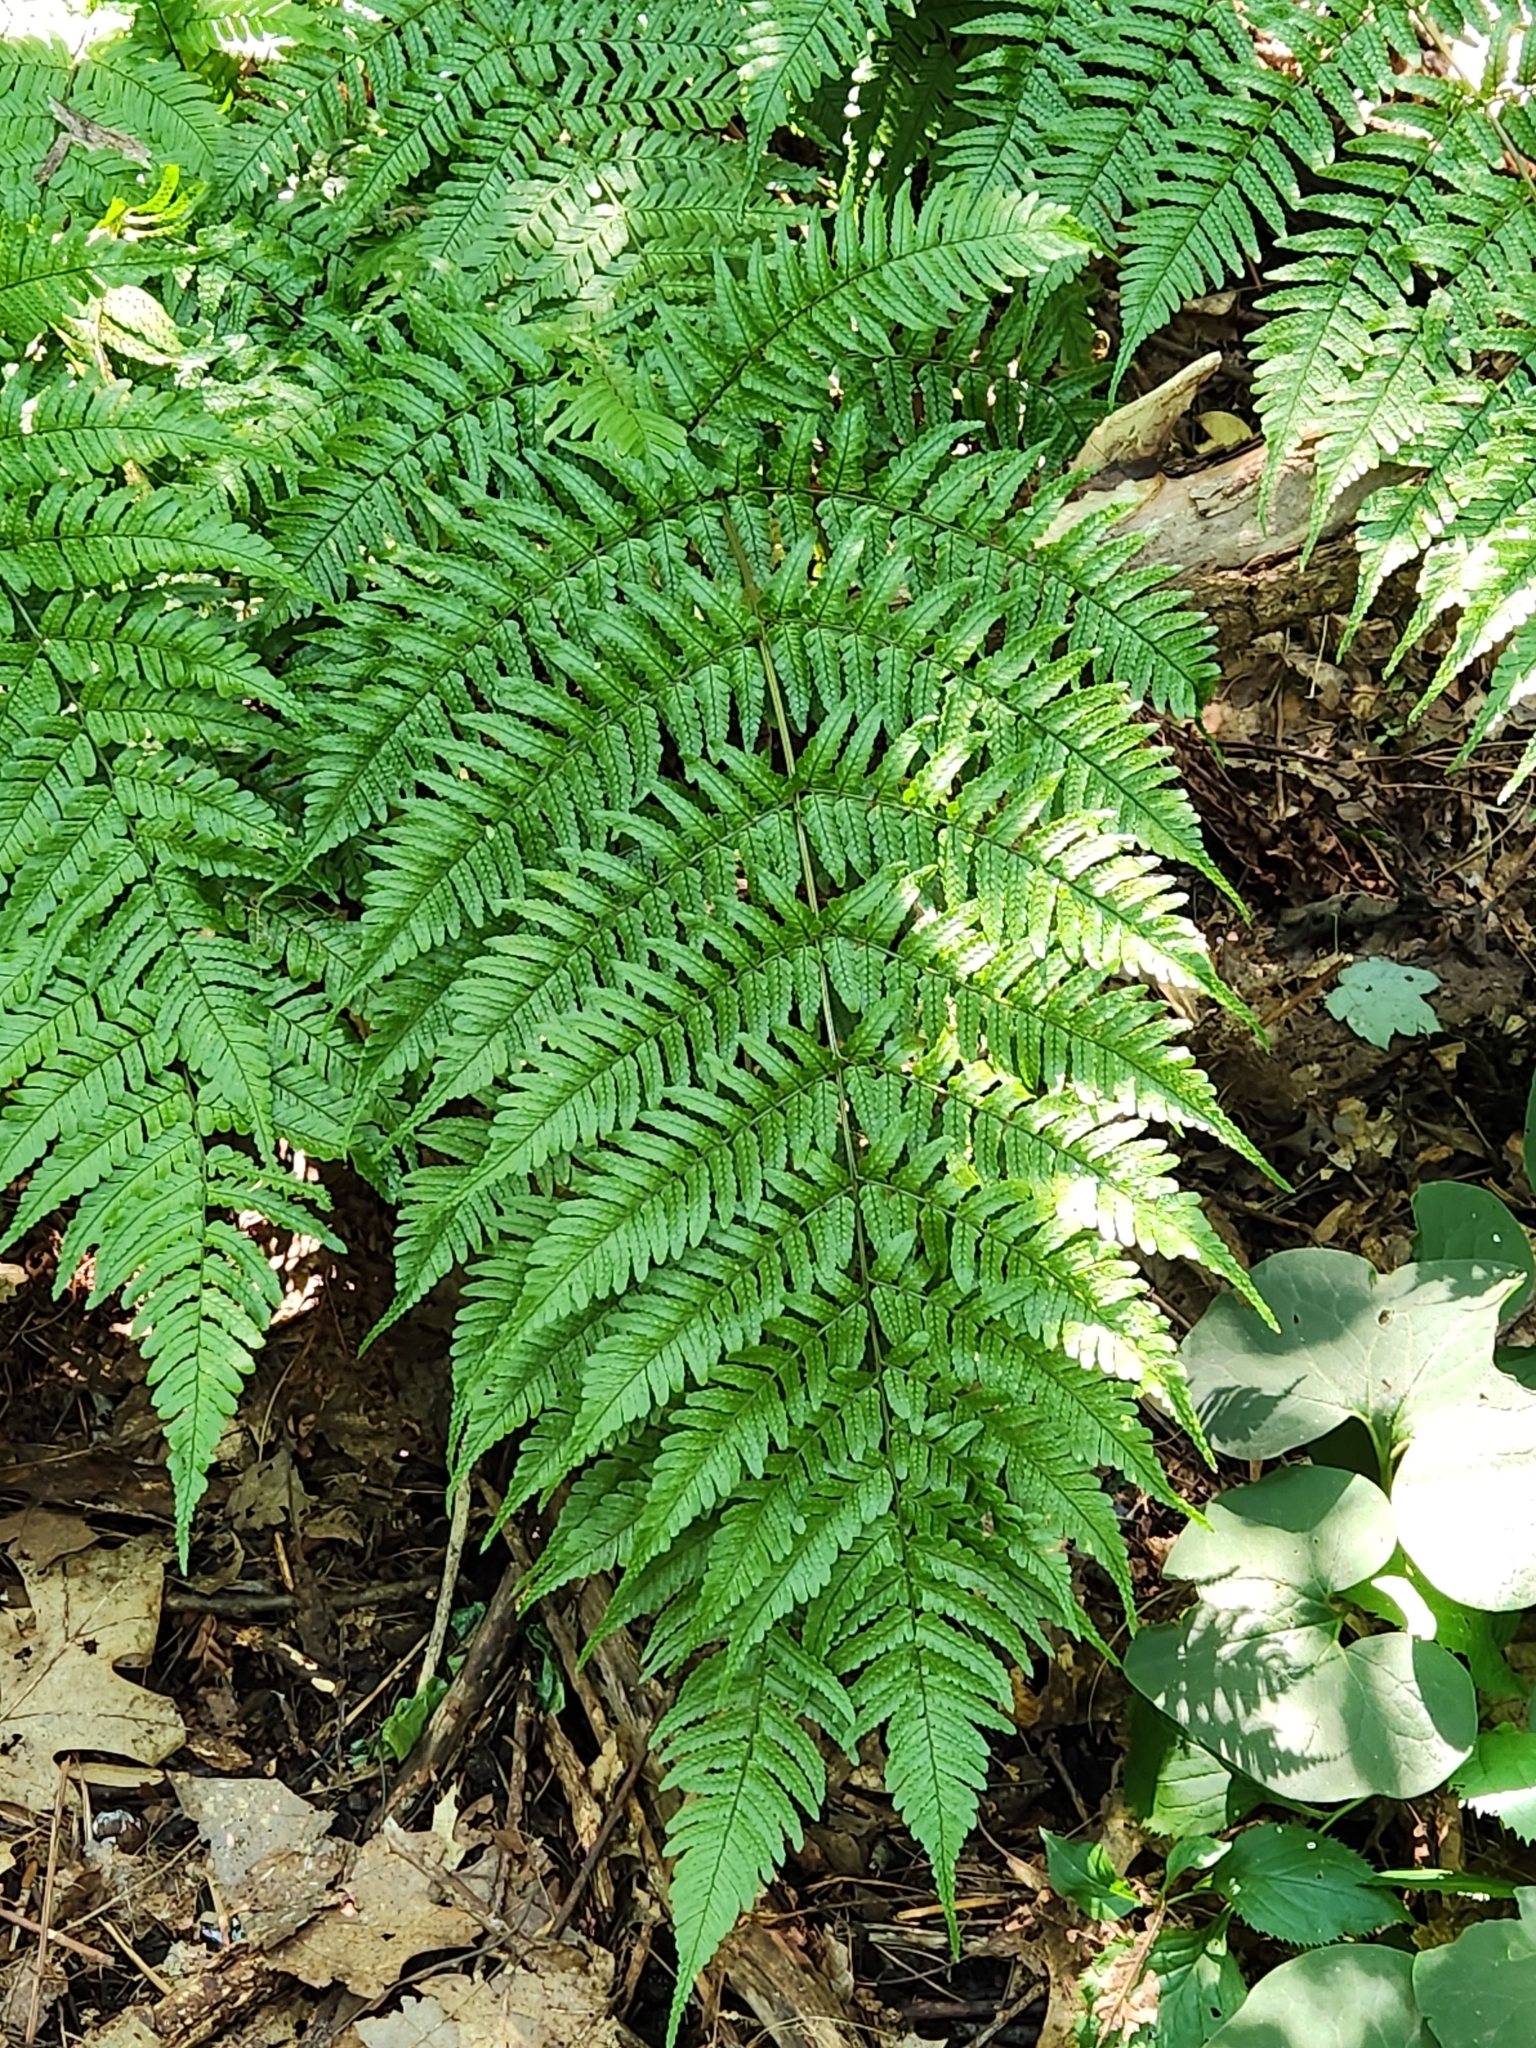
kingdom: Plantae
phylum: Tracheophyta
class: Polypodiopsida
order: Polypodiales
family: Dryopteridaceae
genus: Dryopteris
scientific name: Dryopteris erythrosora
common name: Autumn fern
